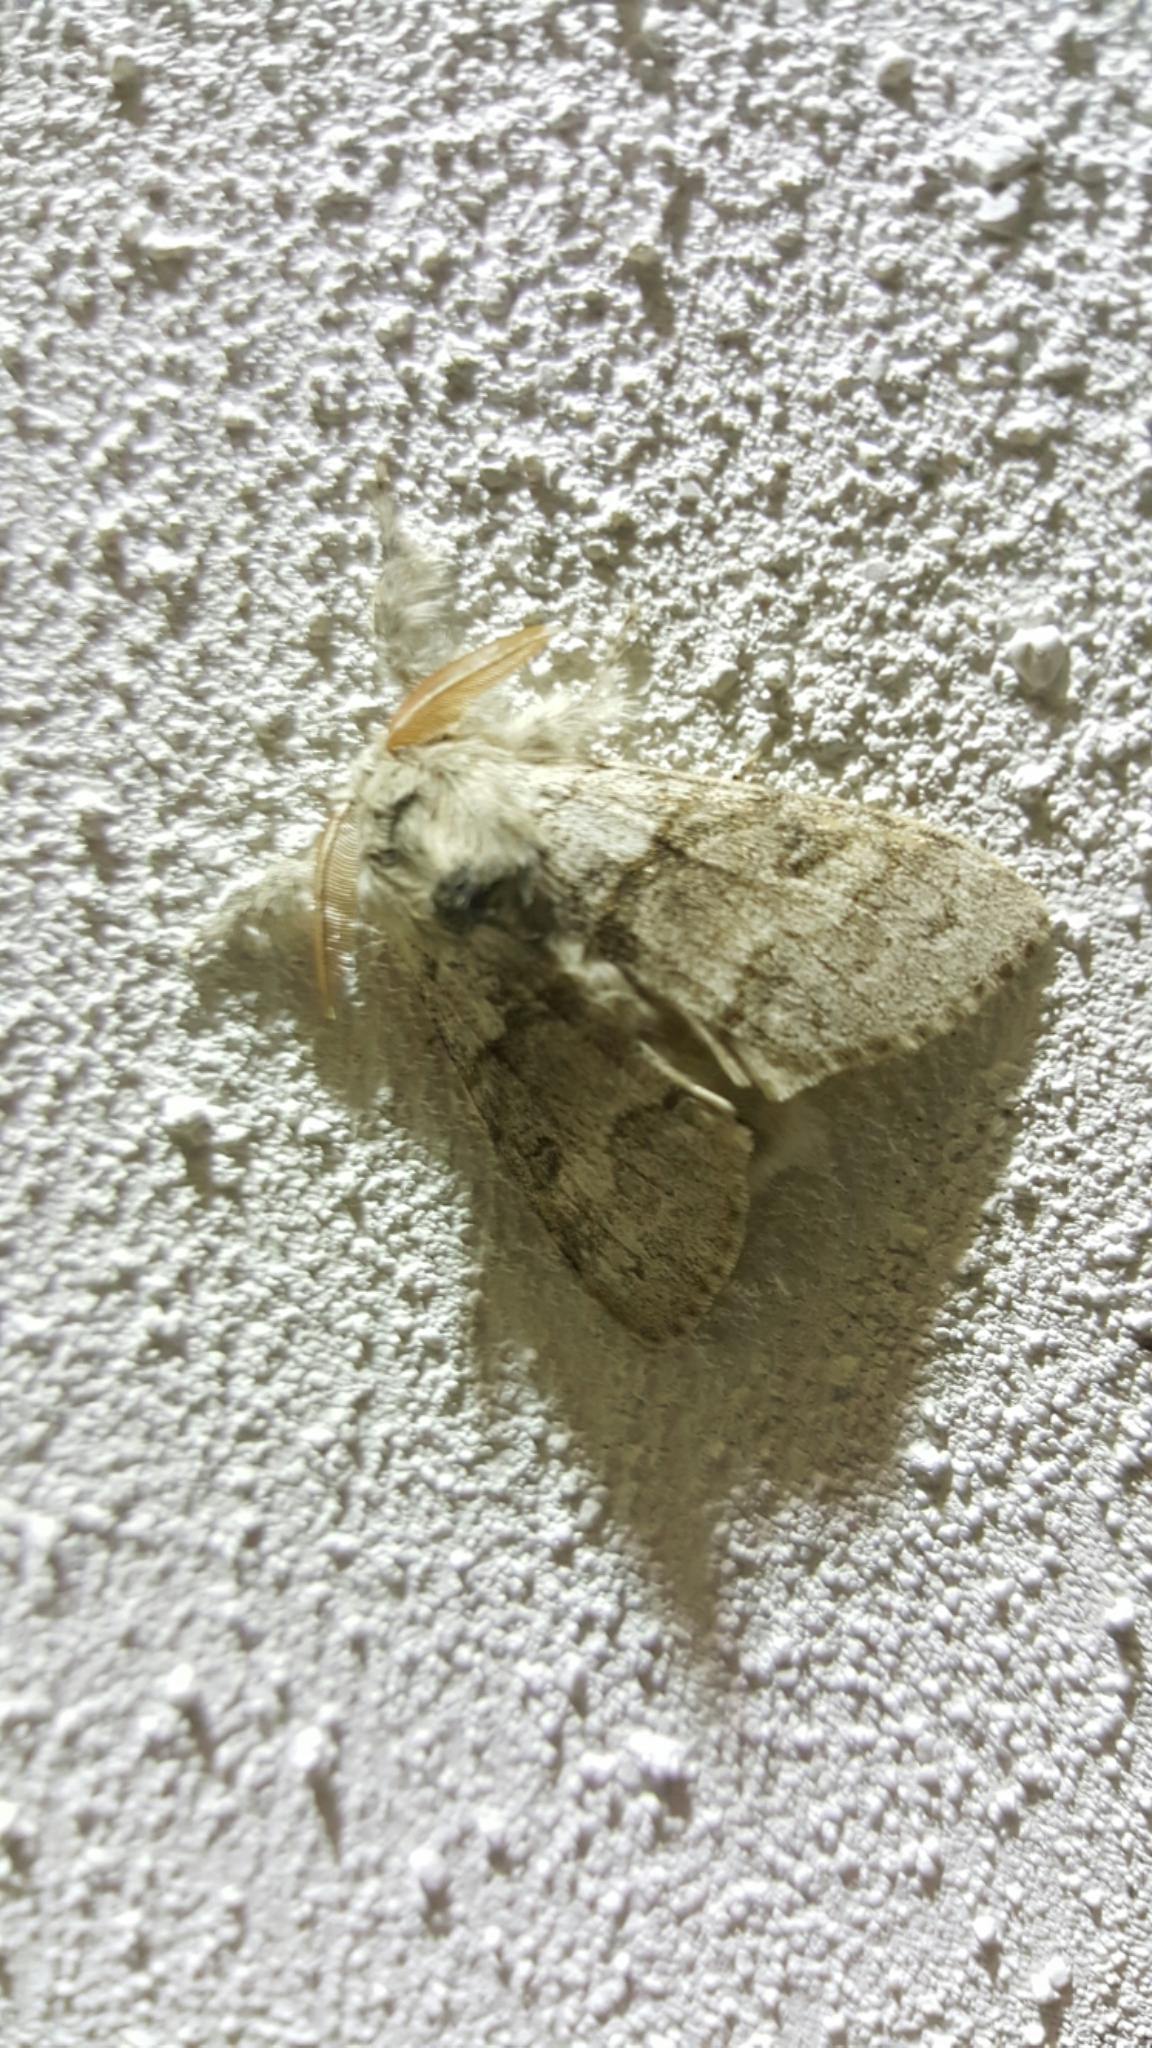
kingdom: Animalia
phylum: Arthropoda
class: Insecta
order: Lepidoptera
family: Erebidae
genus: Calliteara
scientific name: Calliteara pudibunda
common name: Pale tussock
